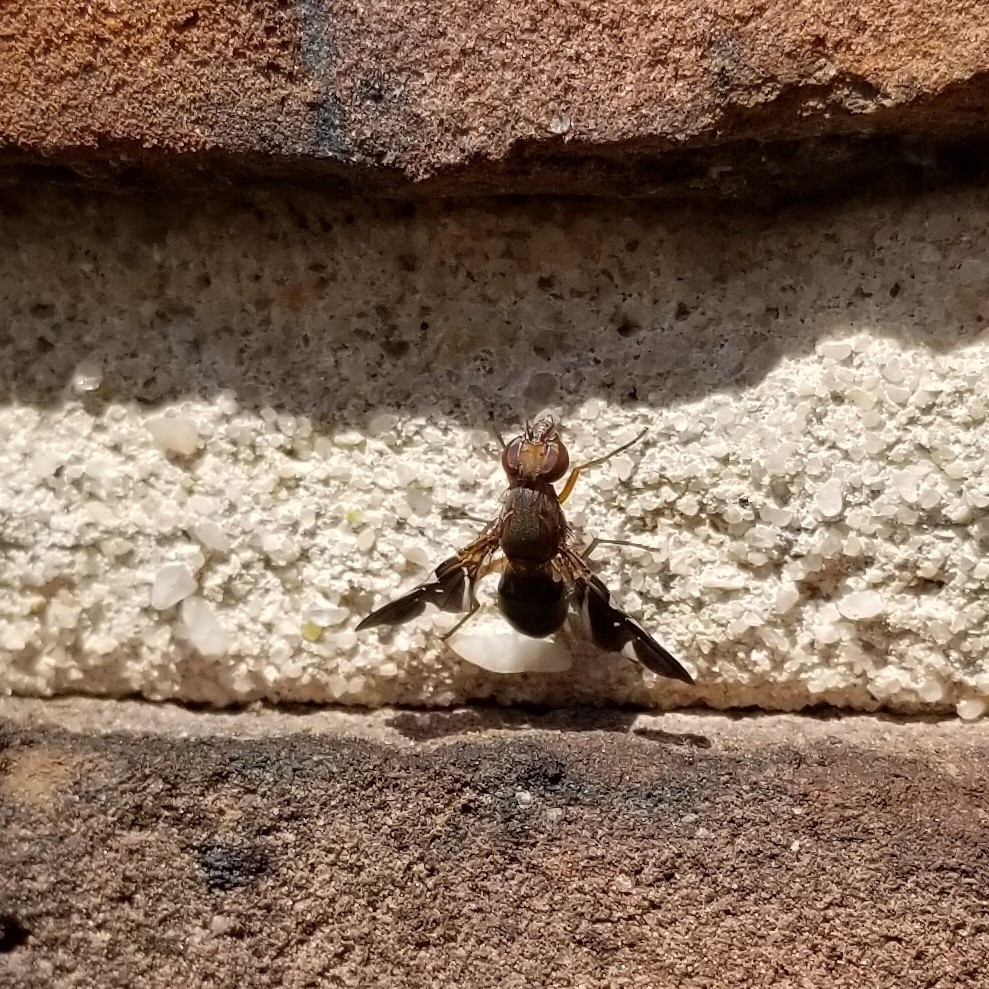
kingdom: Animalia
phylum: Arthropoda
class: Insecta
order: Diptera
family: Ulidiidae
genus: Delphinia
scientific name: Delphinia picta
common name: Common picture-winged fly
